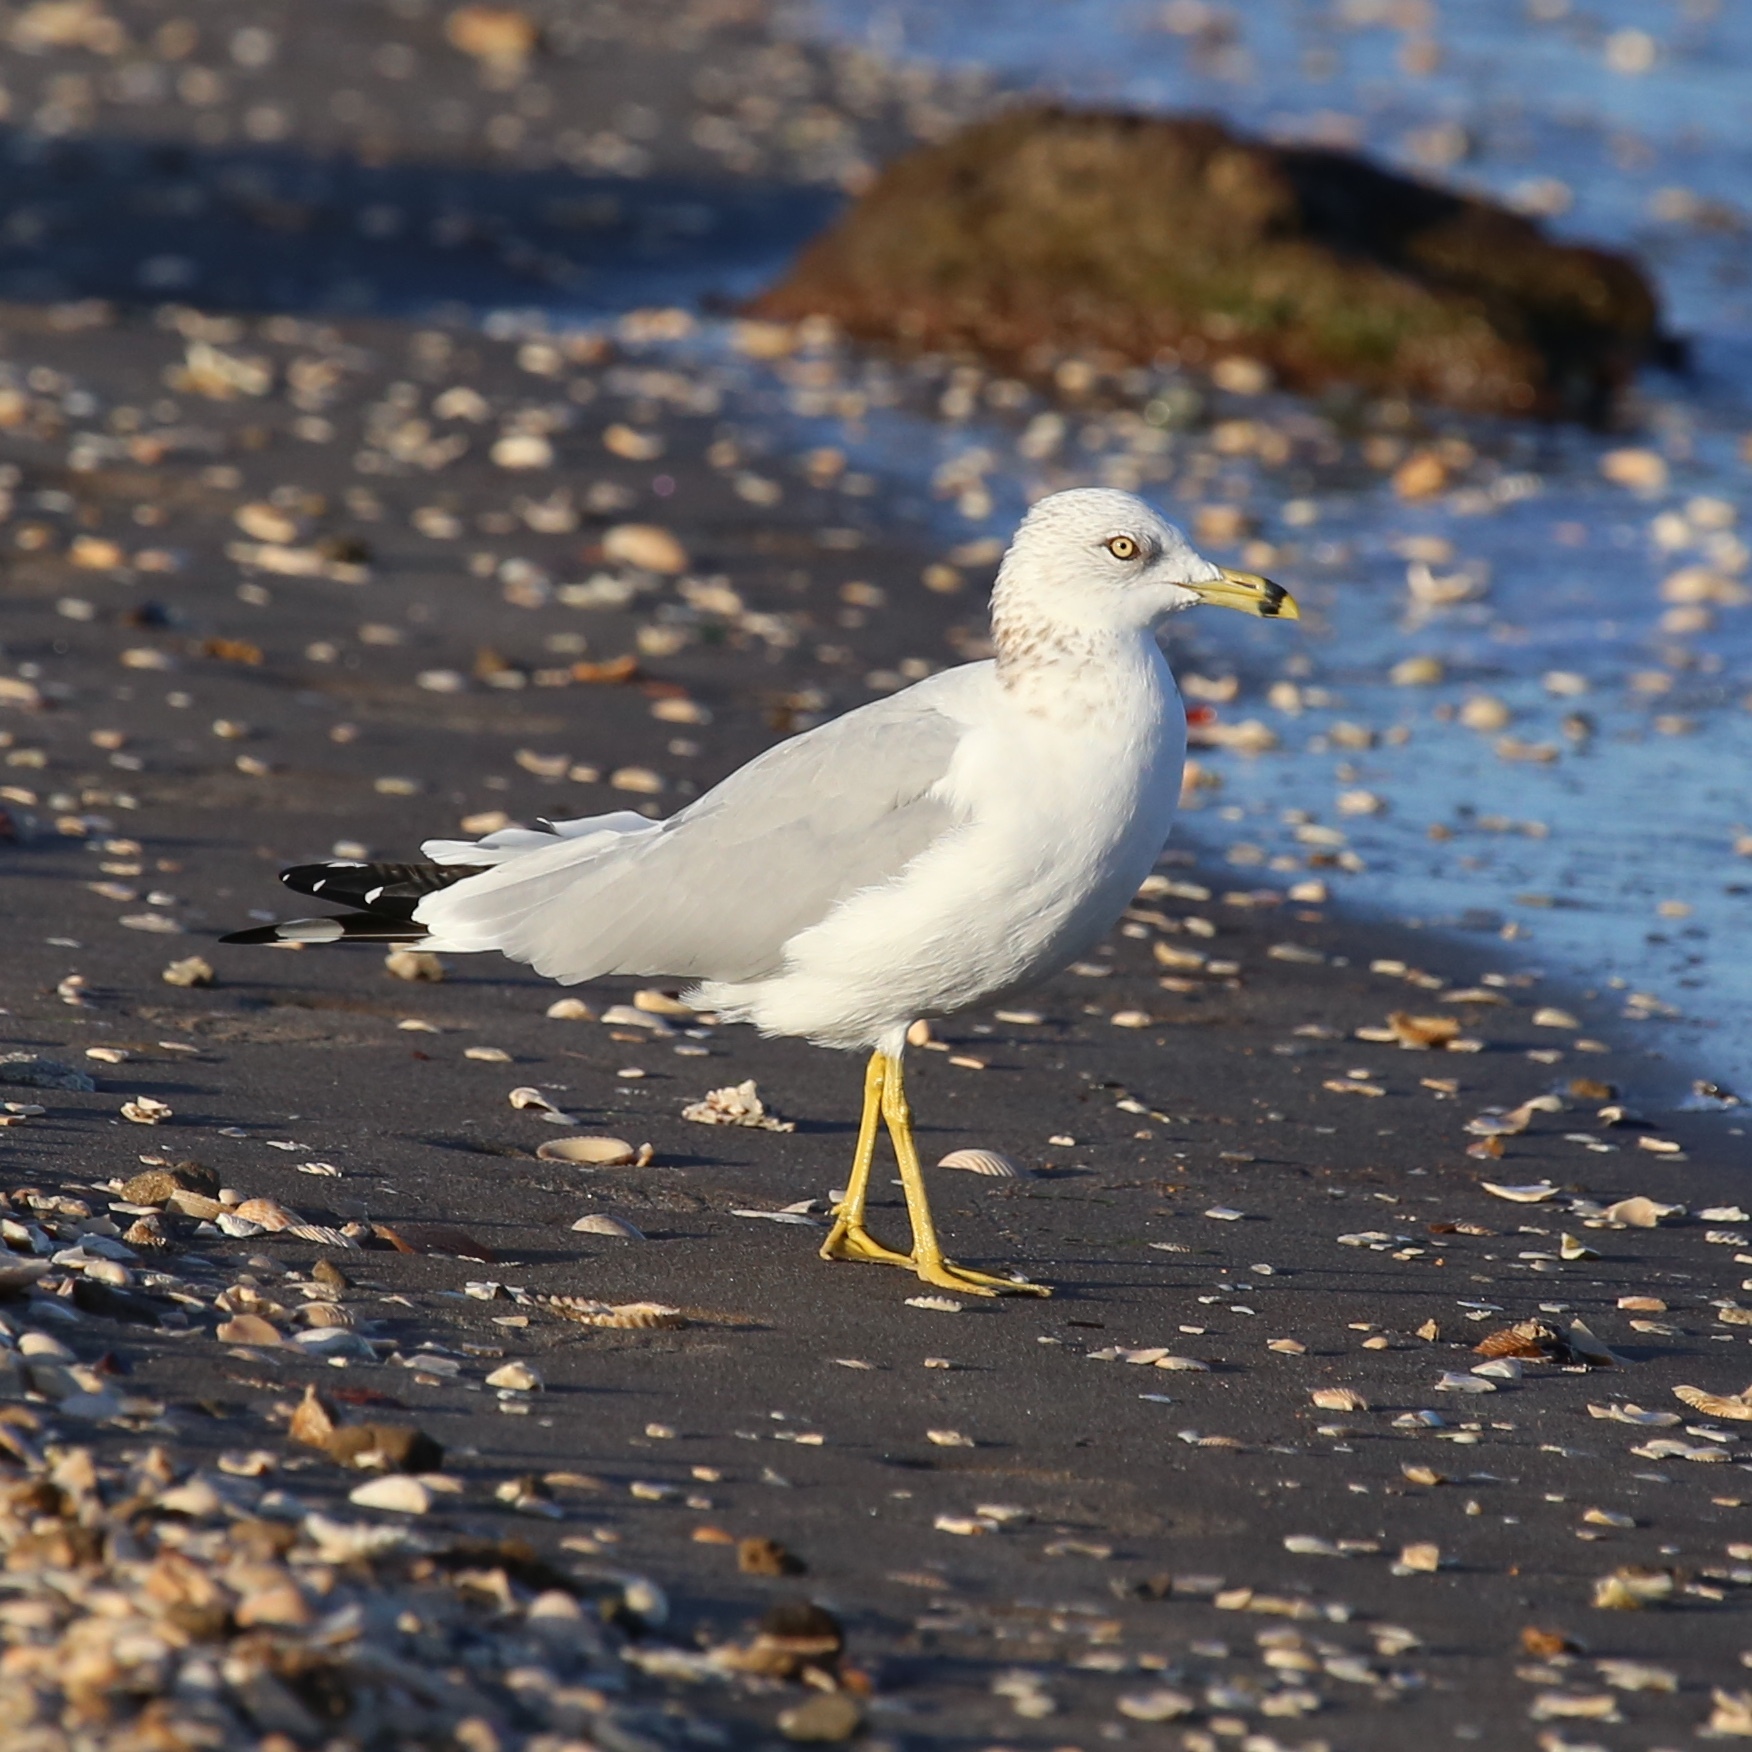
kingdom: Animalia
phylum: Chordata
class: Aves
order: Charadriiformes
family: Laridae
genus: Larus
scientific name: Larus delawarensis
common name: Ring-billed gull
